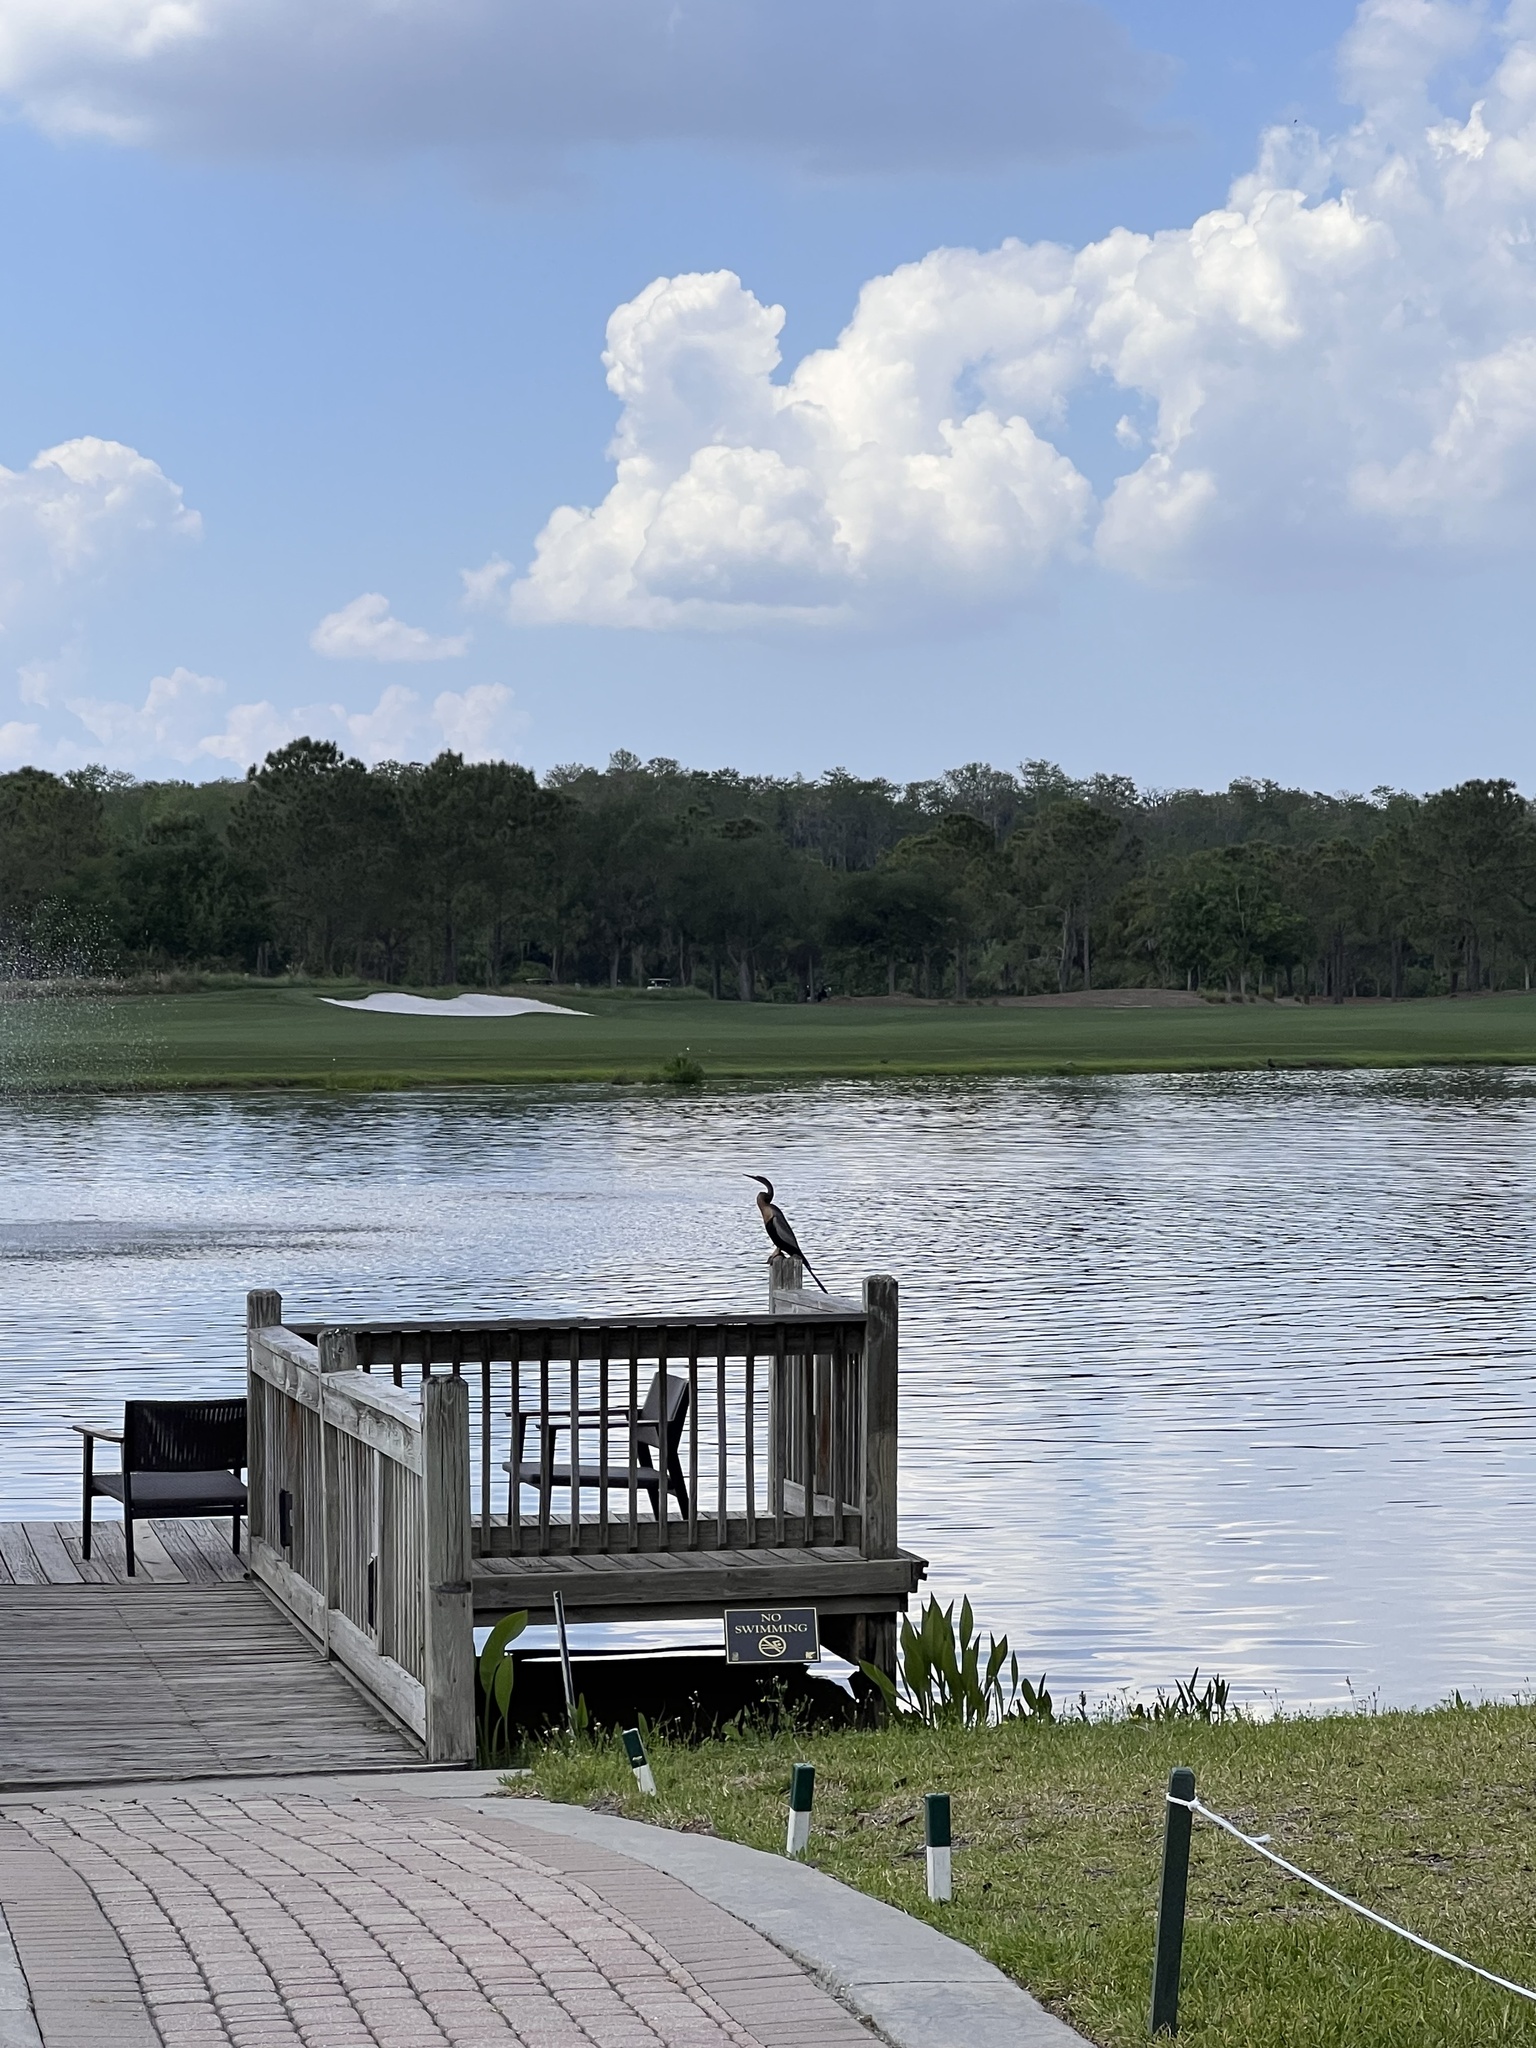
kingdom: Animalia
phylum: Chordata
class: Aves
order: Suliformes
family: Anhingidae
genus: Anhinga
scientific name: Anhinga anhinga
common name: Anhinga
